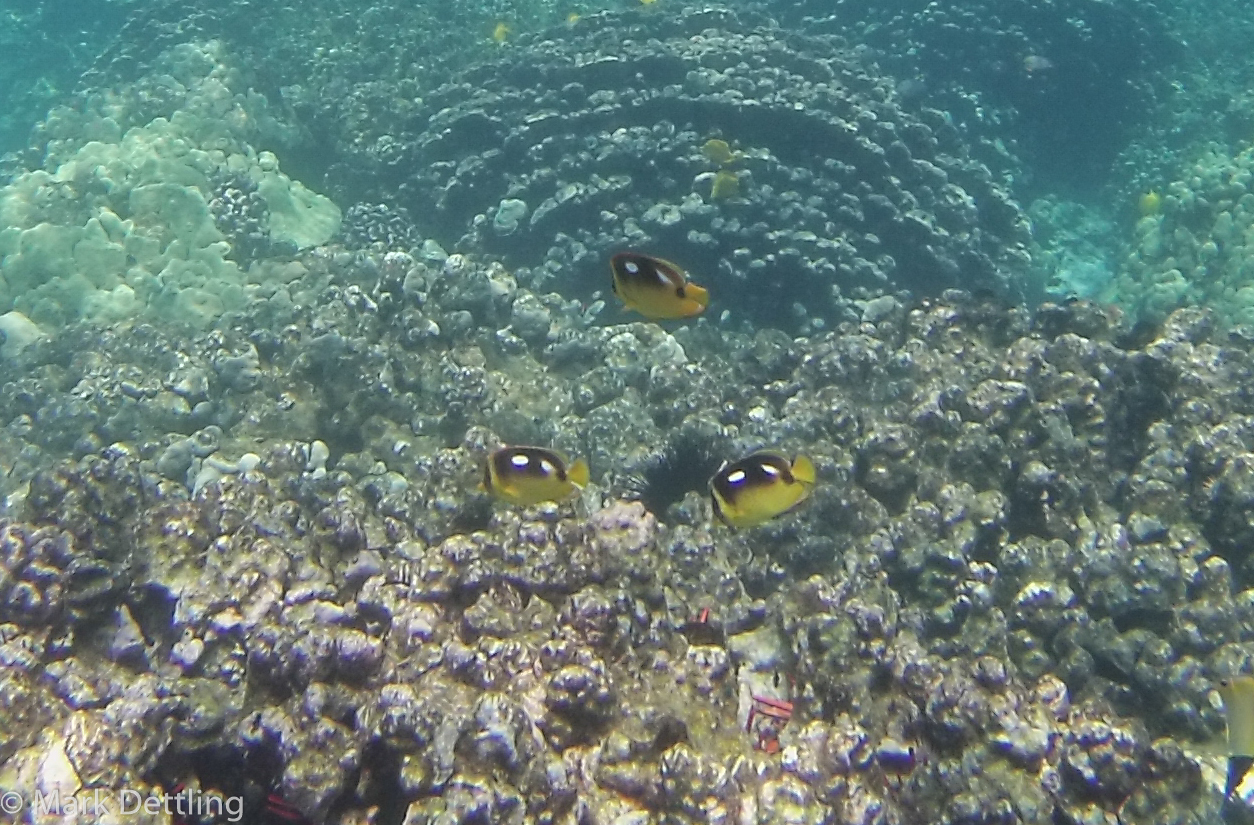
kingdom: Animalia
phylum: Chordata
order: Perciformes
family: Chaetodontidae
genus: Chaetodon
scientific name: Chaetodon quadrimaculatus
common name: Fourspot butterflyfish
